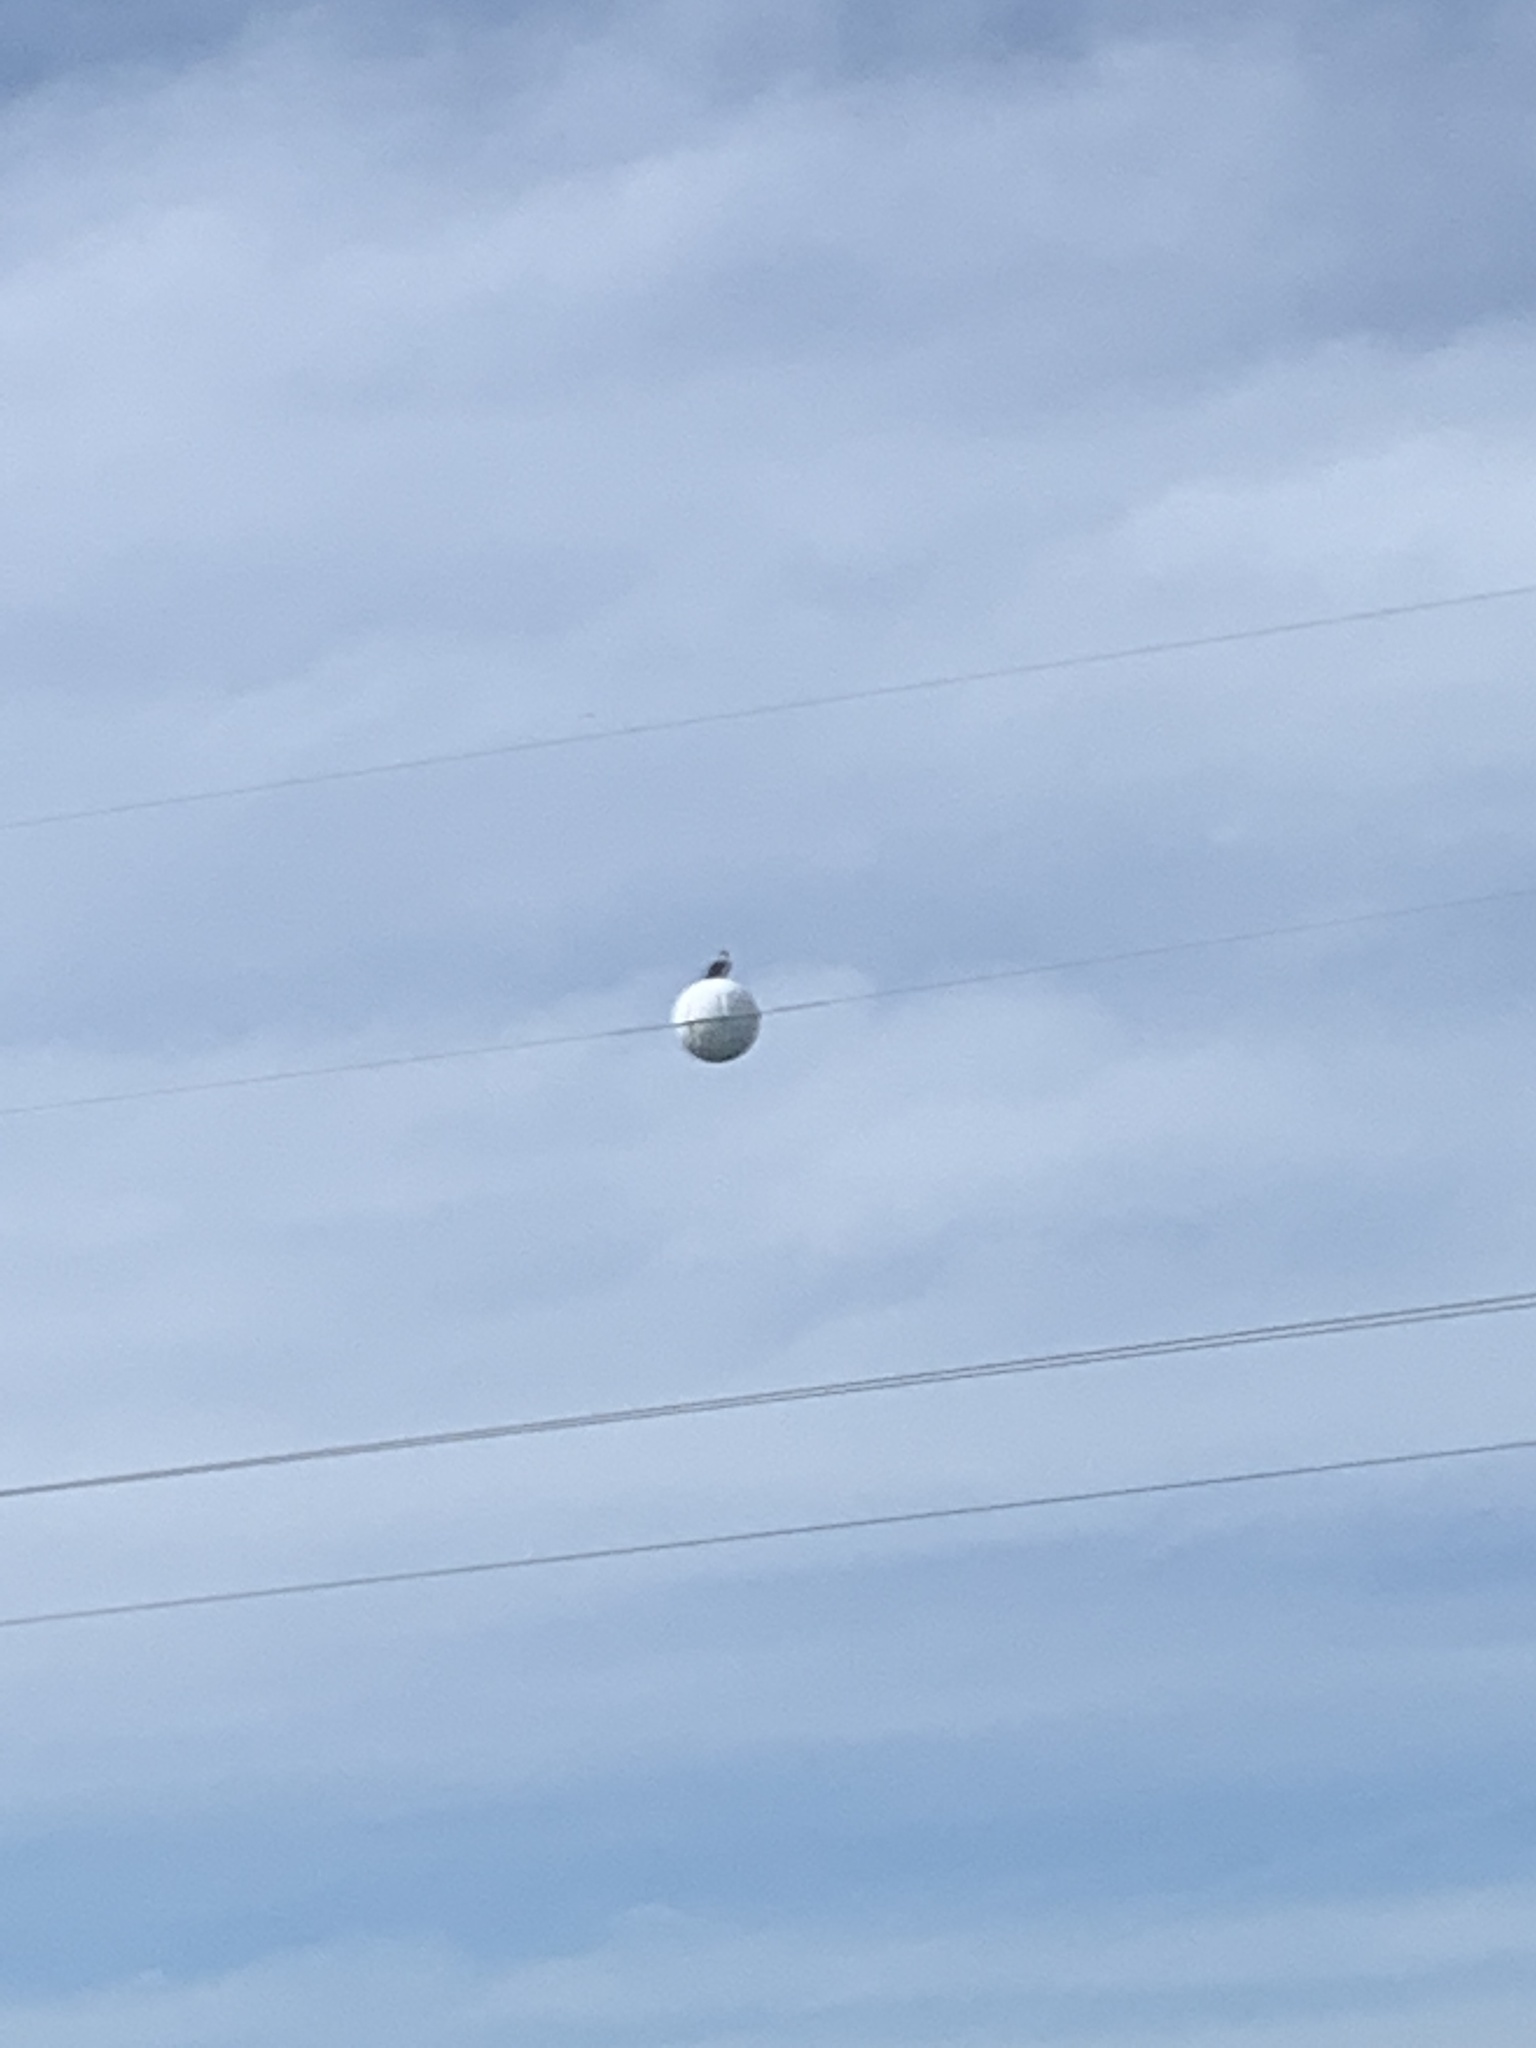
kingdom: Animalia
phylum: Chordata
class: Aves
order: Accipitriformes
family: Pandionidae
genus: Pandion
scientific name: Pandion haliaetus
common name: Osprey
